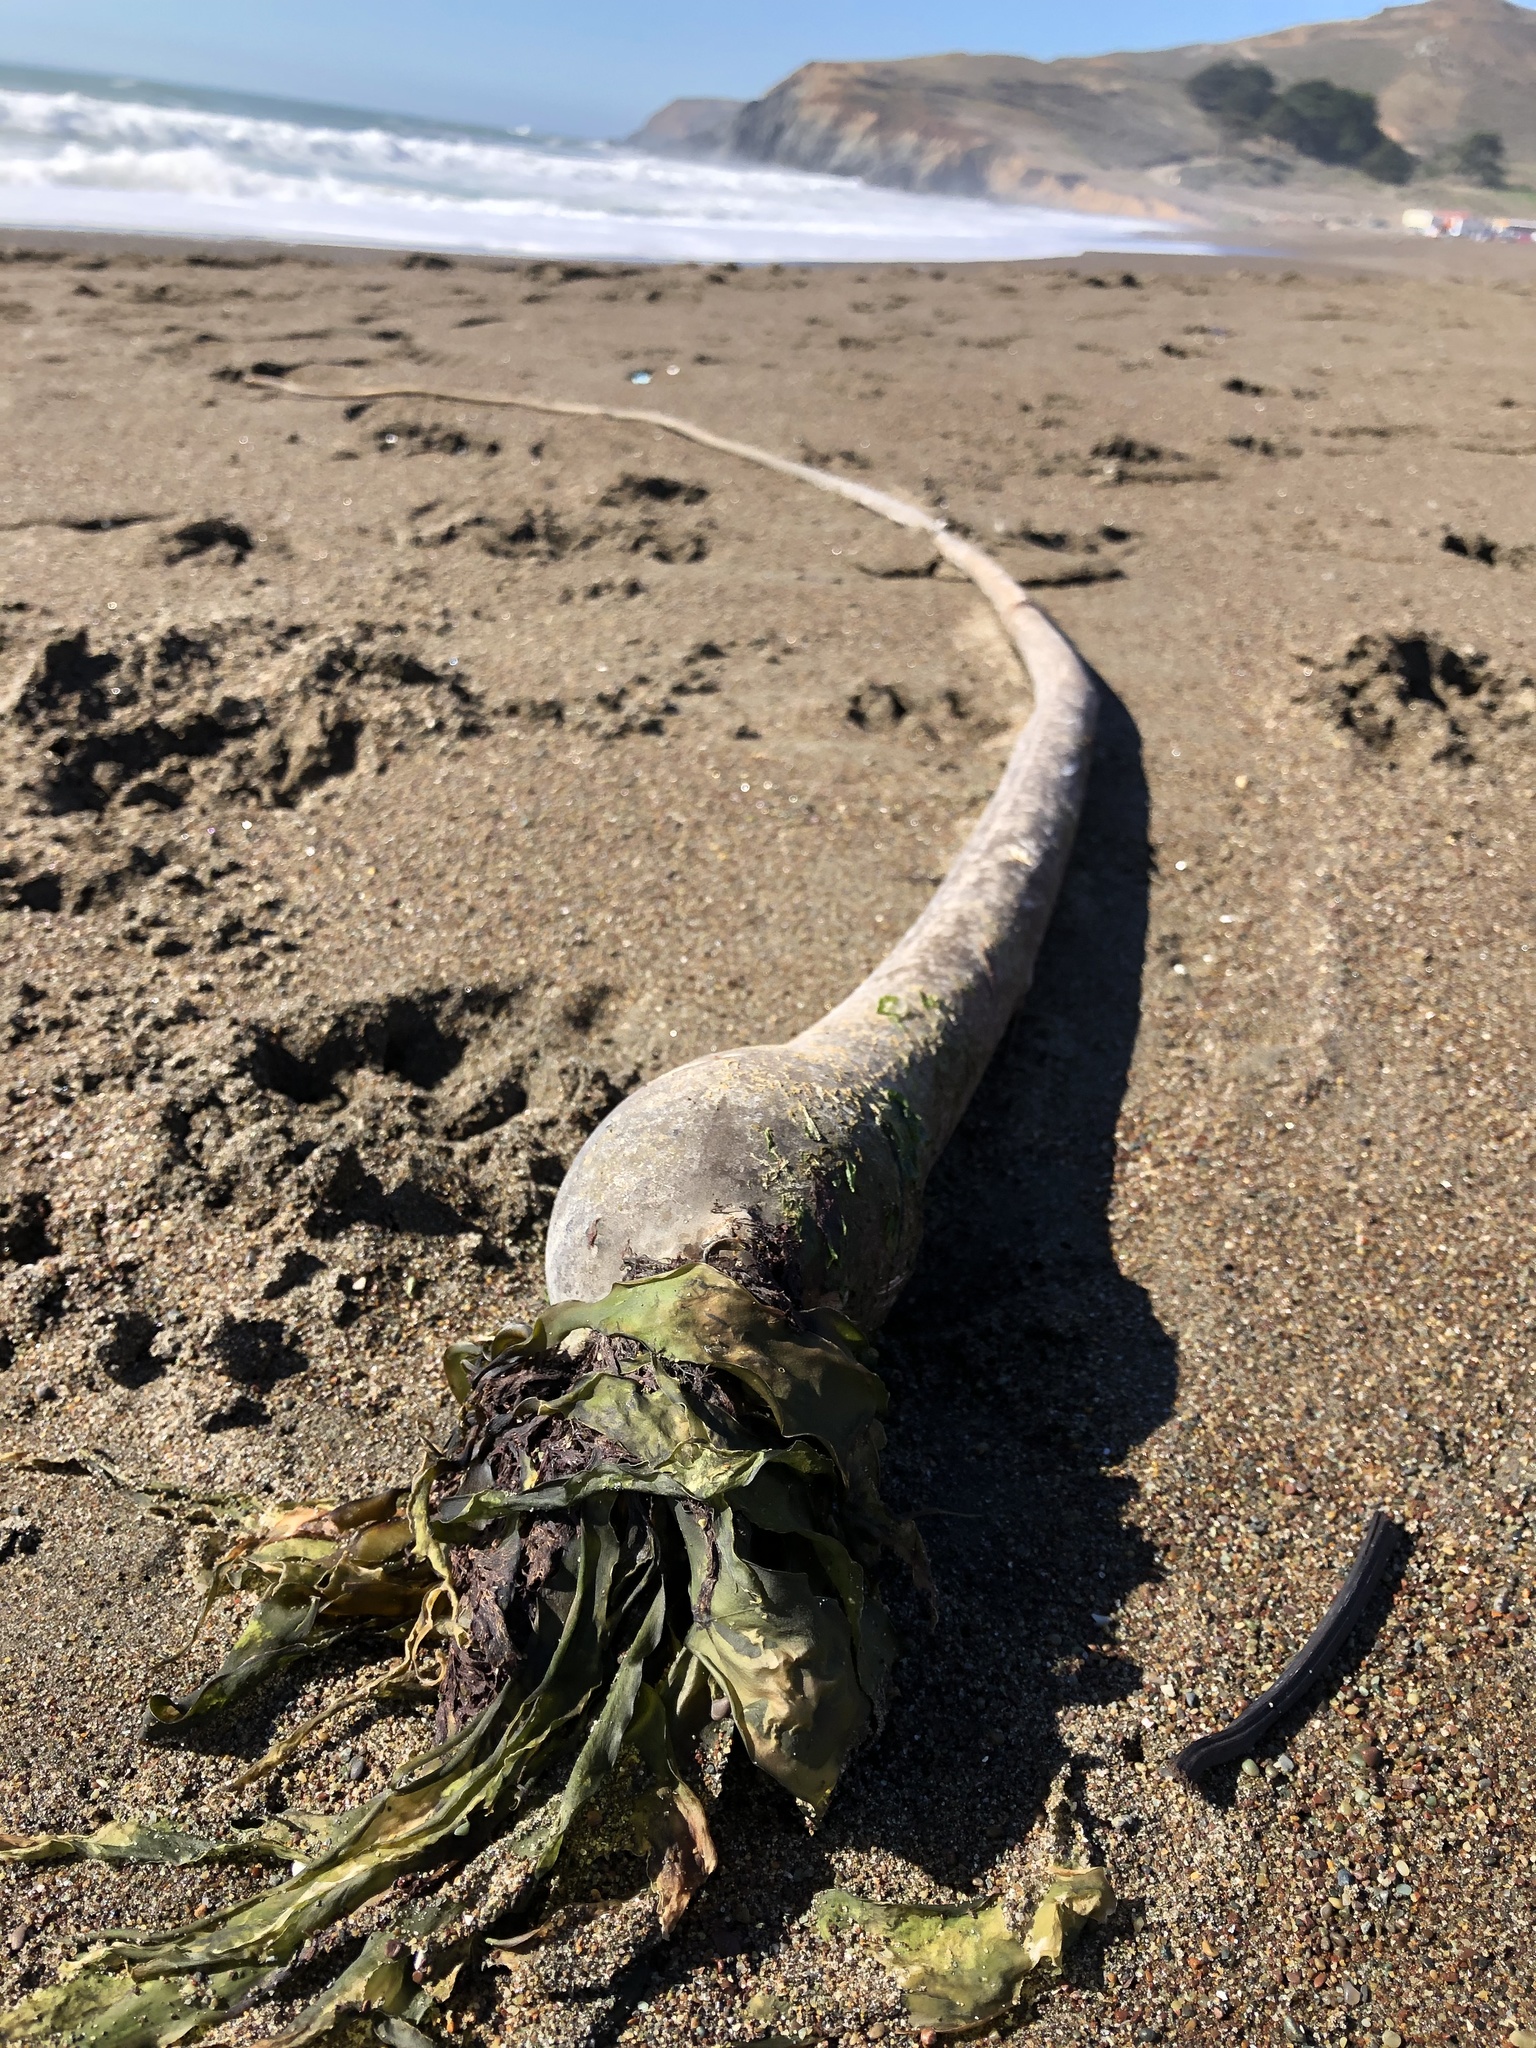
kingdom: Chromista
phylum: Ochrophyta
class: Phaeophyceae
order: Laminariales
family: Laminariaceae
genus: Nereocystis
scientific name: Nereocystis luetkeana
